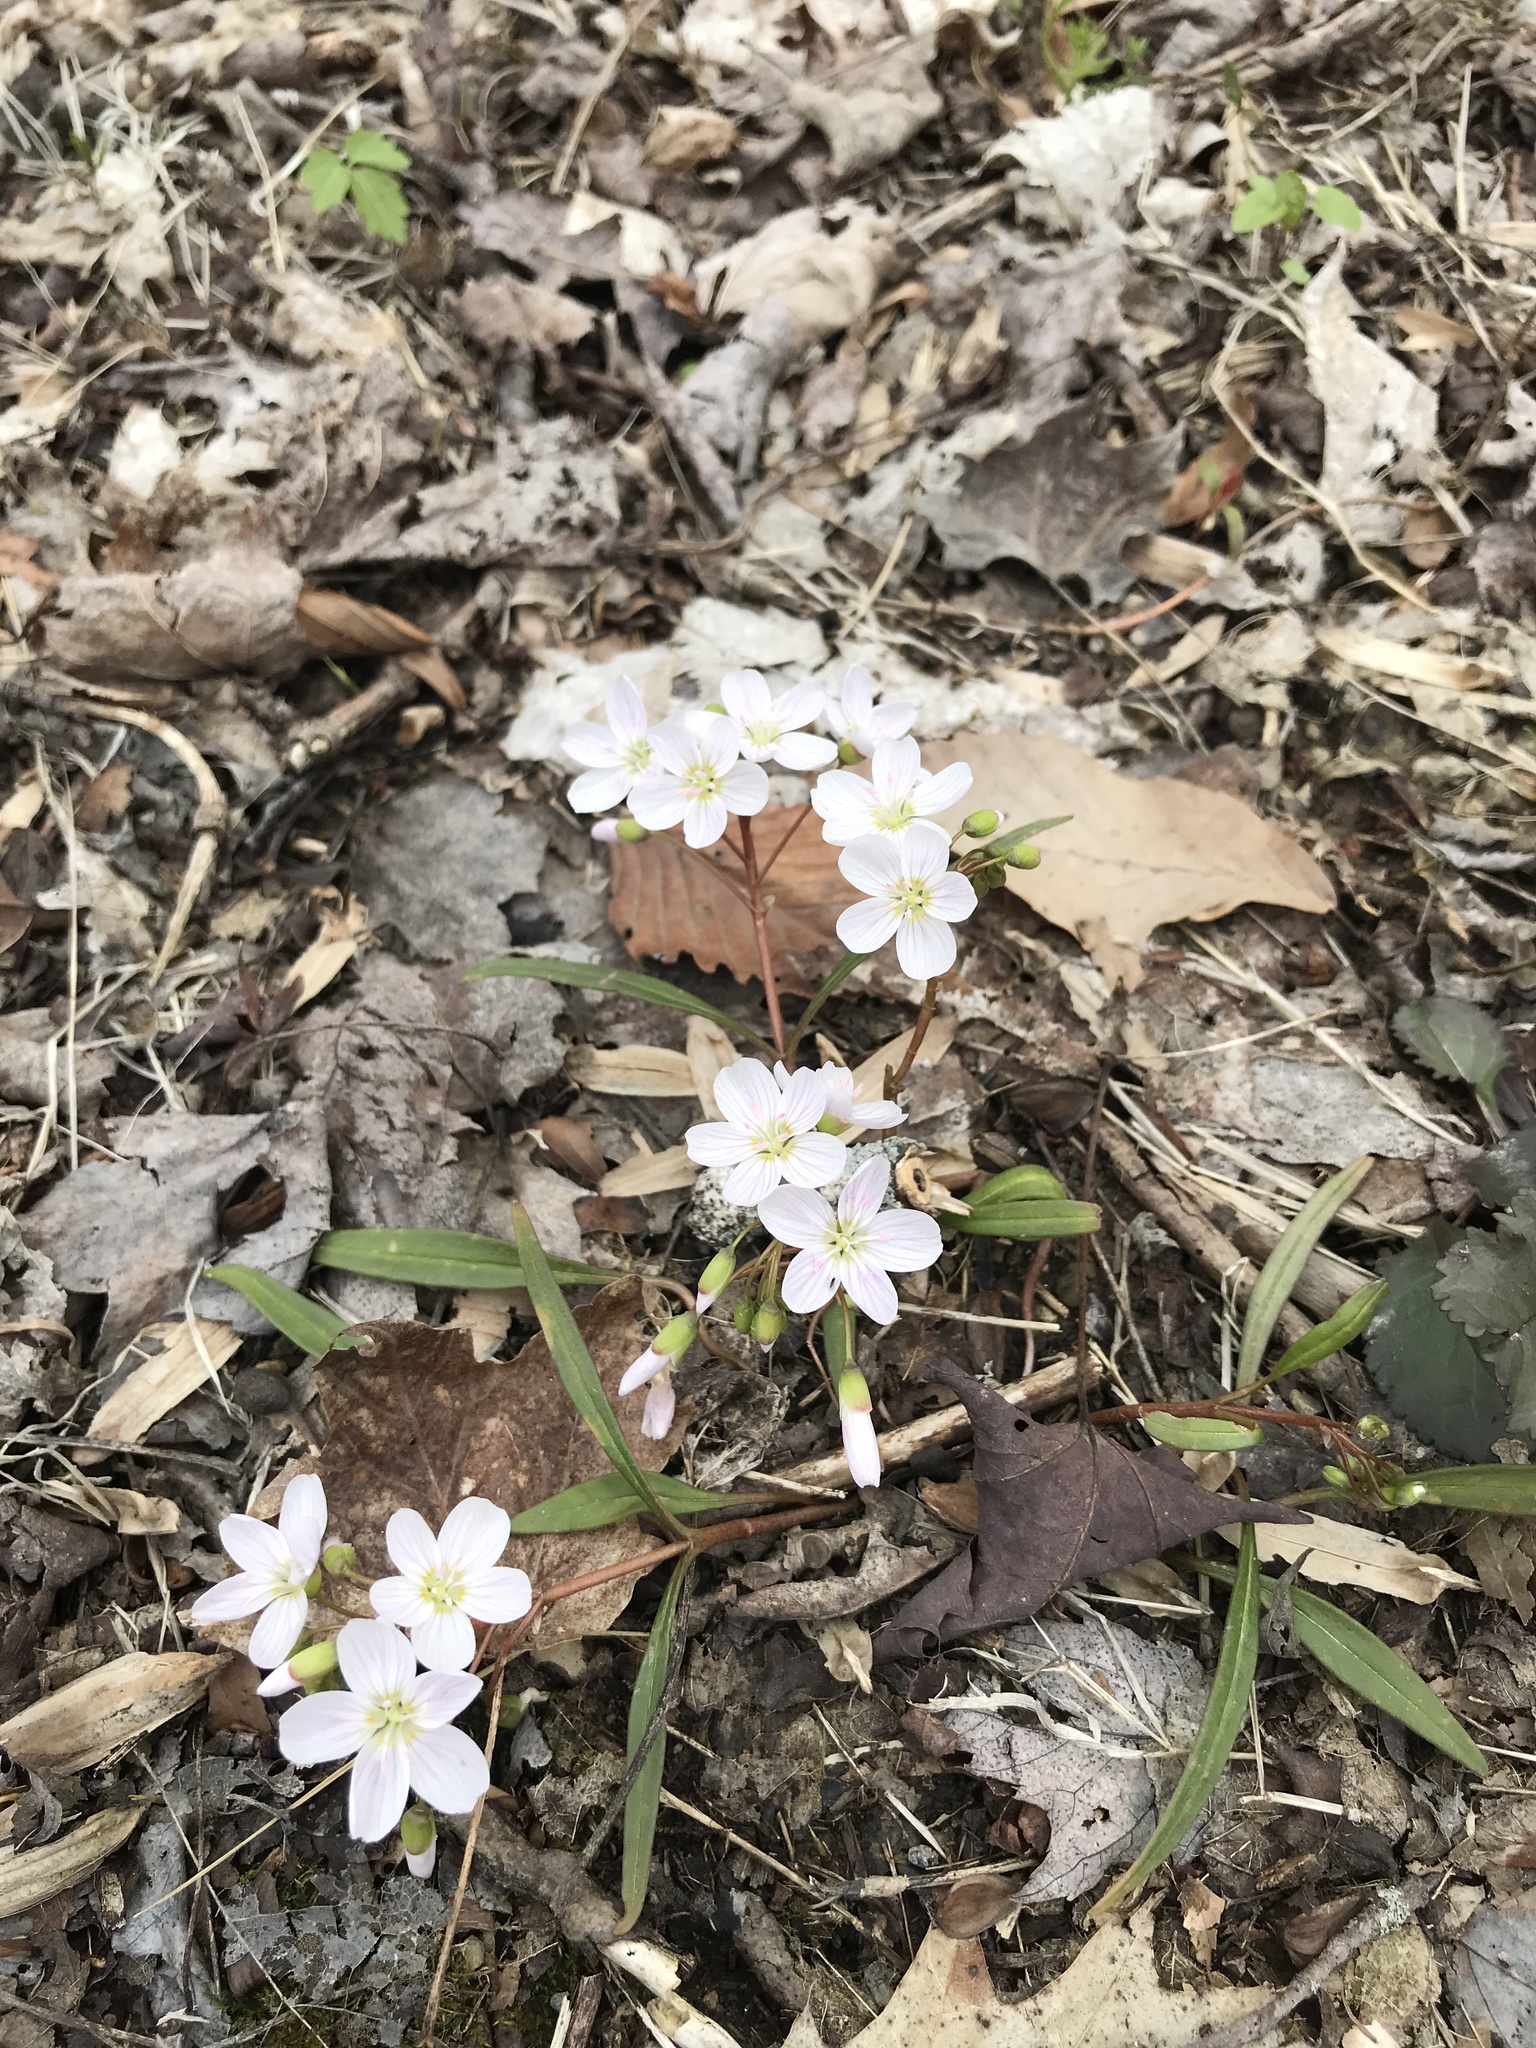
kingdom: Plantae
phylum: Tracheophyta
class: Magnoliopsida
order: Caryophyllales
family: Montiaceae
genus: Claytonia
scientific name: Claytonia virginica
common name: Virginia springbeauty
